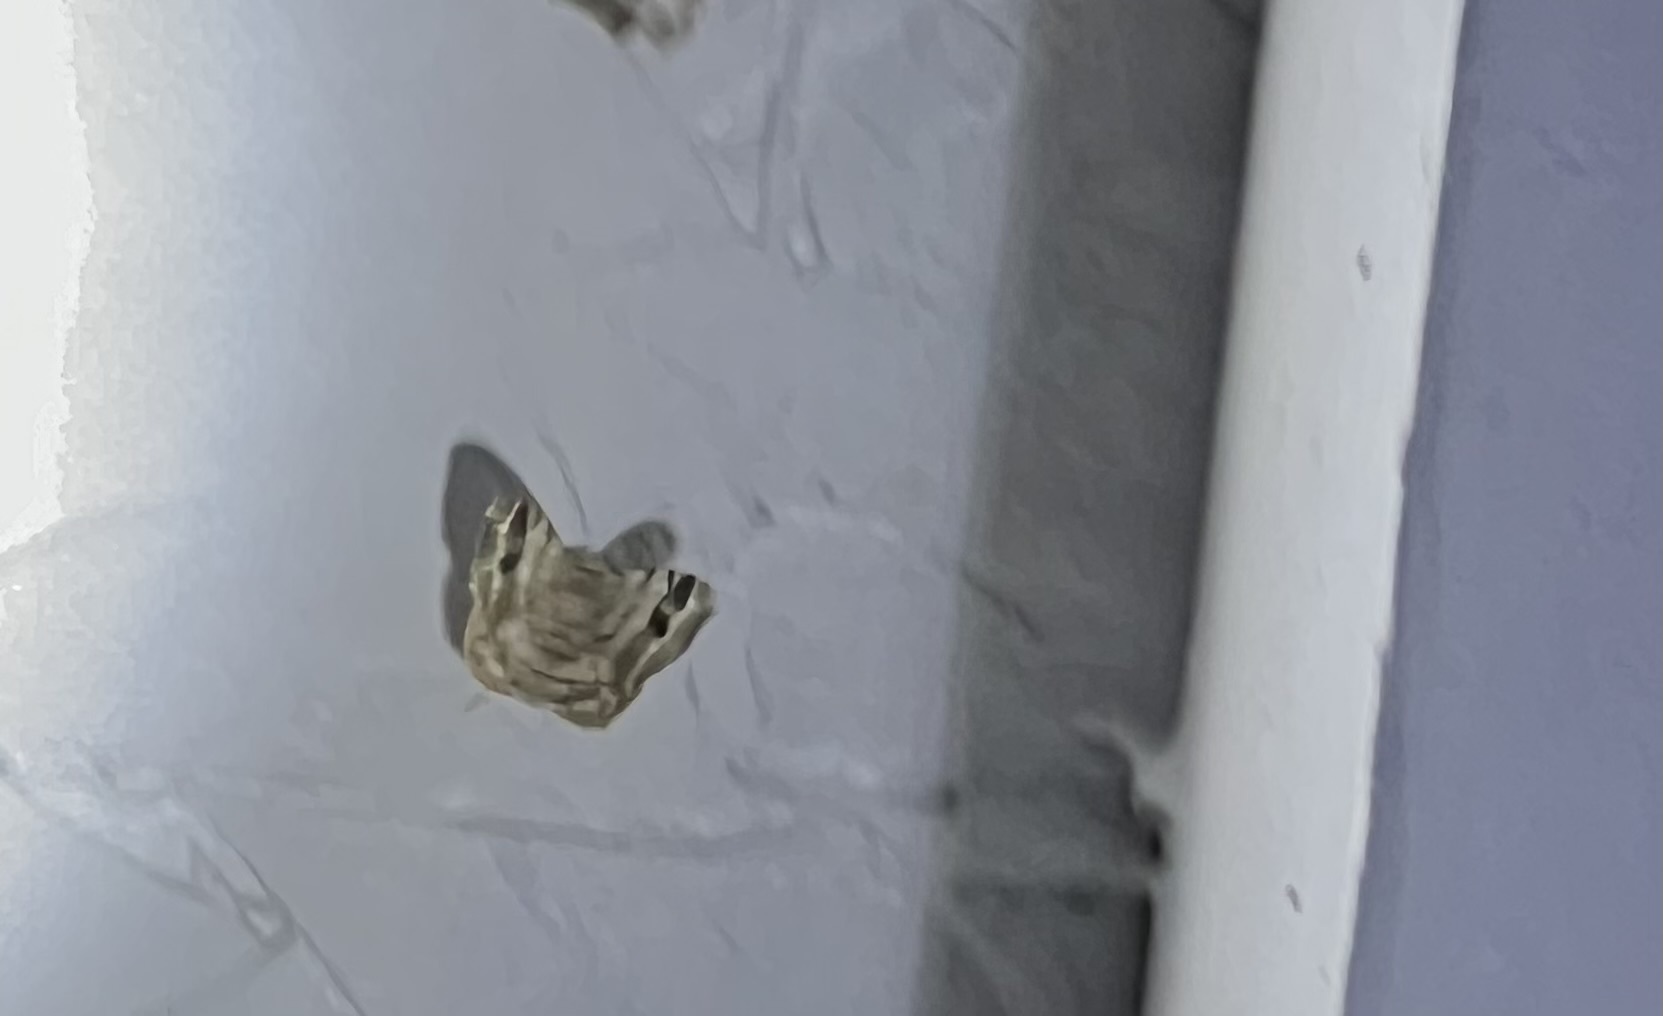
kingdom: Animalia
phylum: Arthropoda
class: Insecta
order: Lepidoptera
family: Noctuidae
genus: Feltia
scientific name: Feltia jaculifera
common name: Dingy cutworm moth
